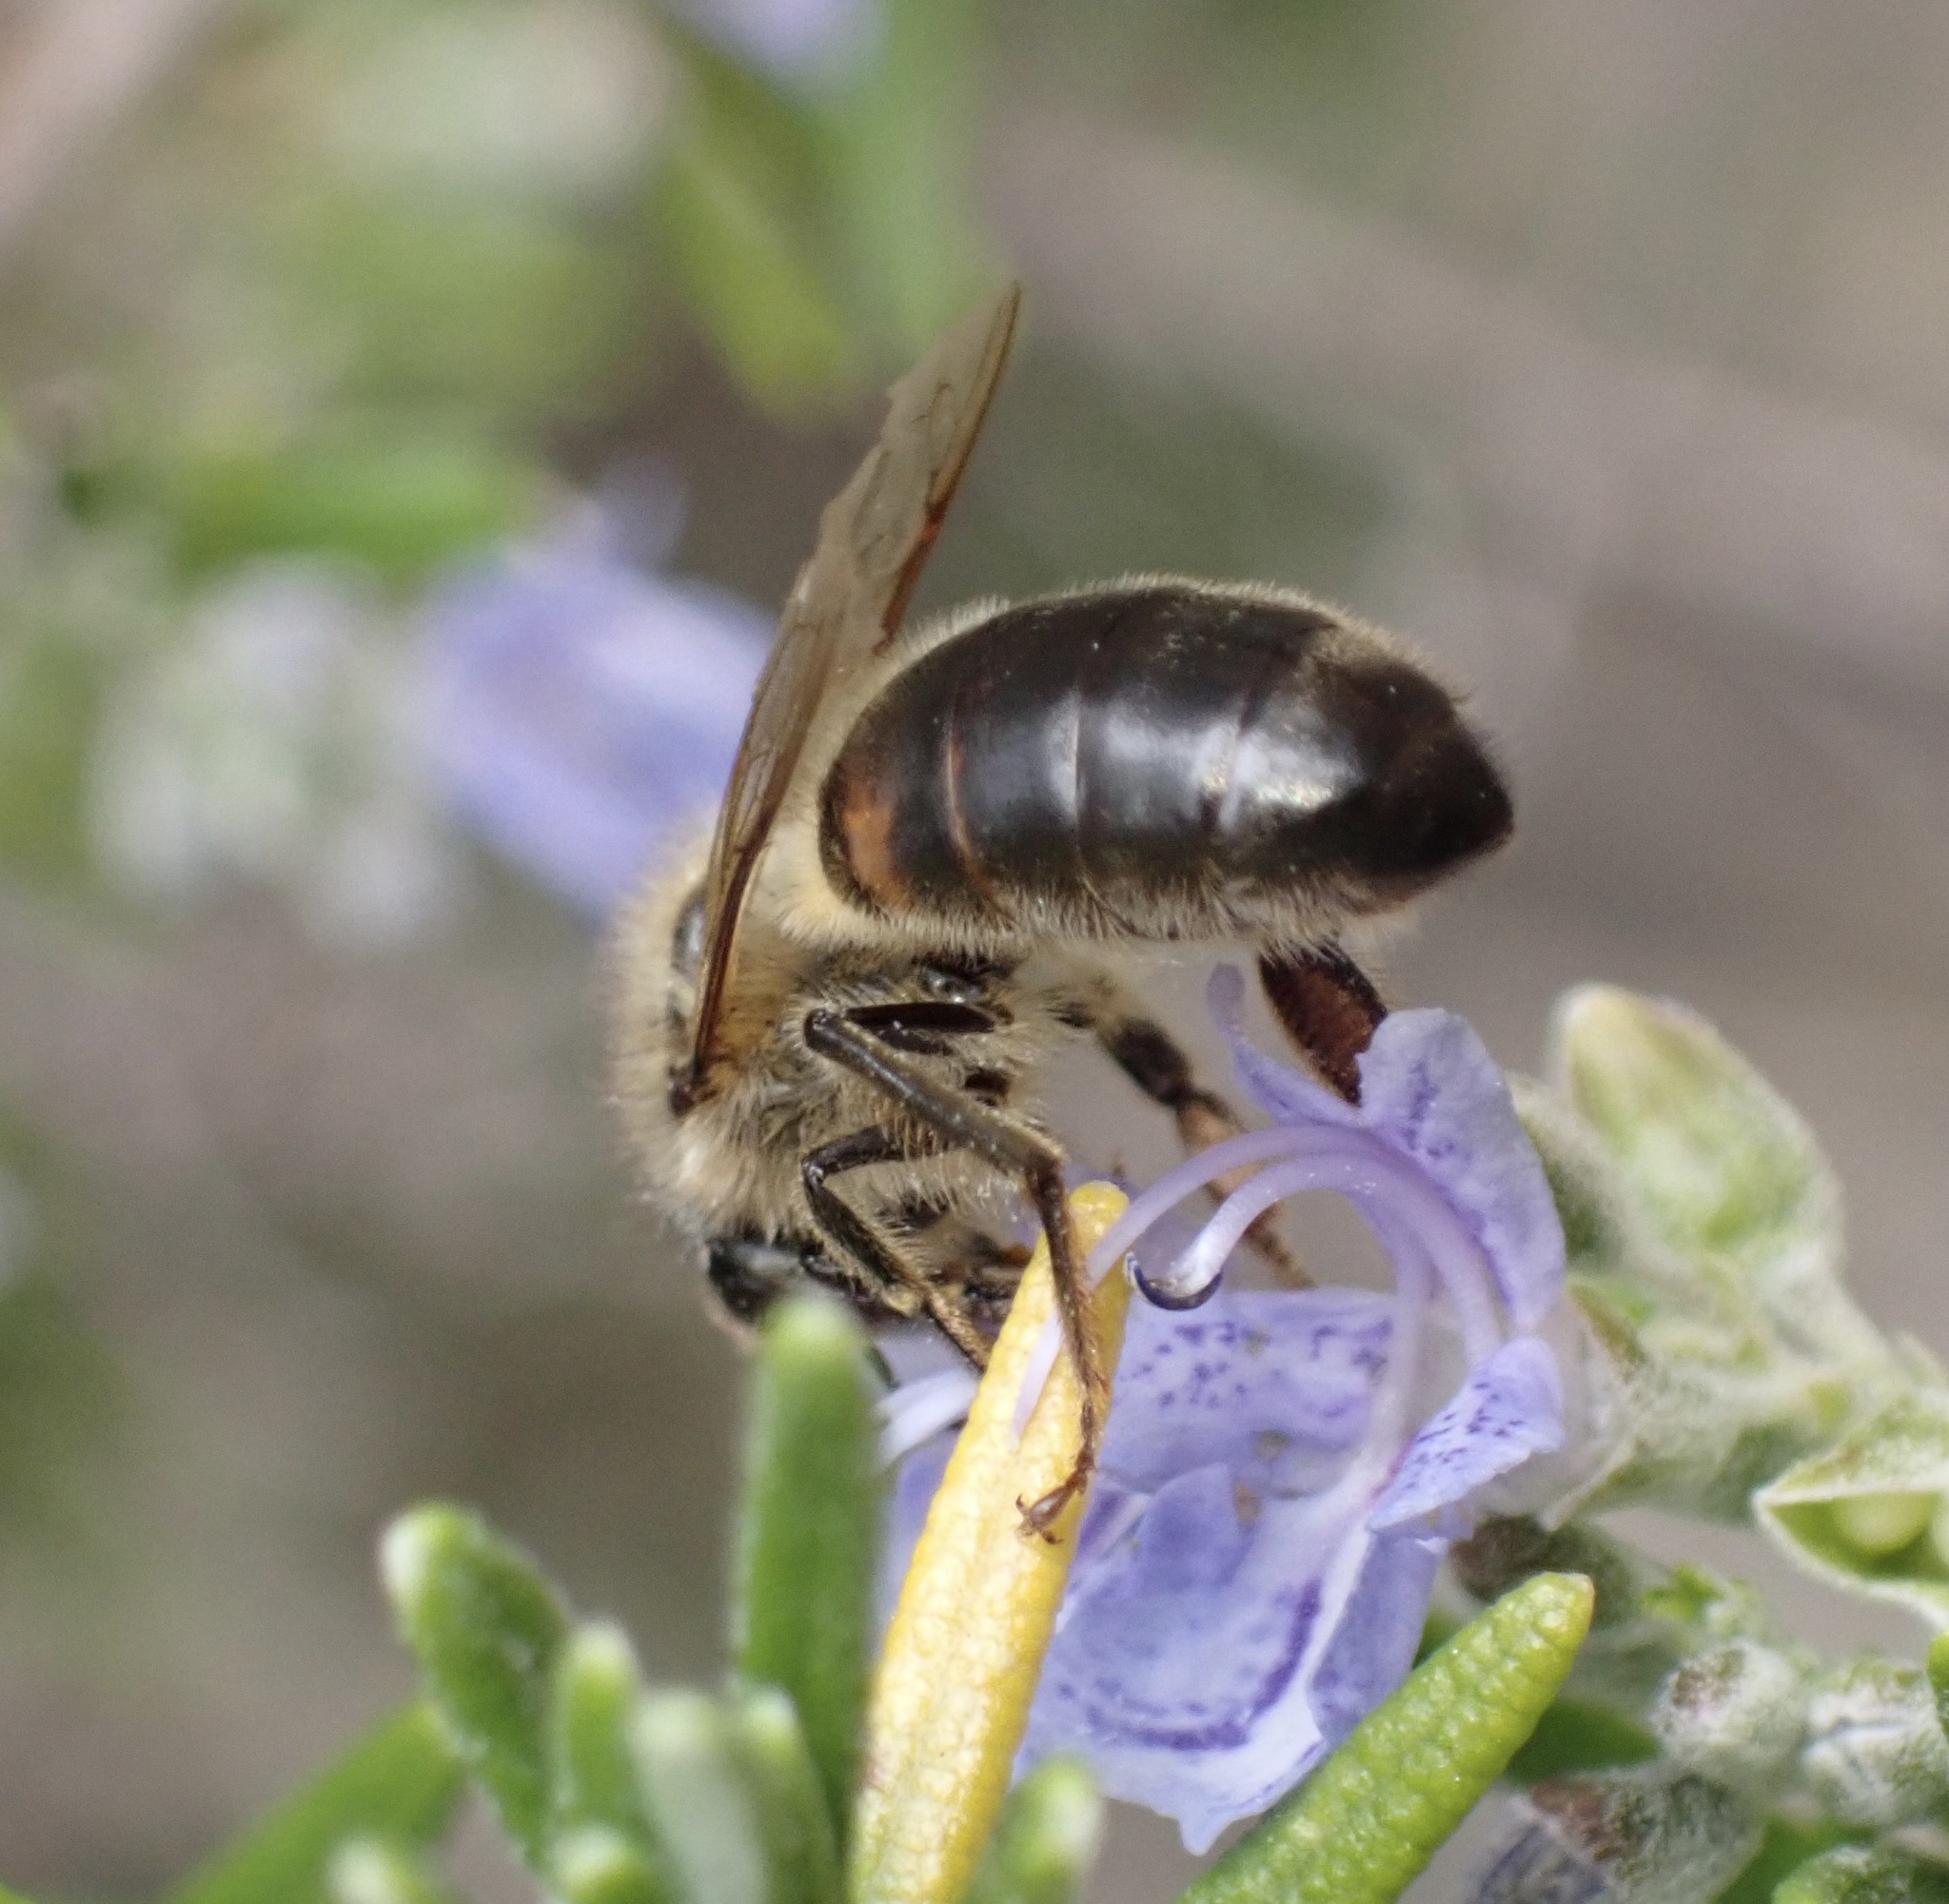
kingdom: Animalia
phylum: Arthropoda
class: Insecta
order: Hymenoptera
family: Apidae
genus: Apis
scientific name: Apis mellifera
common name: Honey bee
